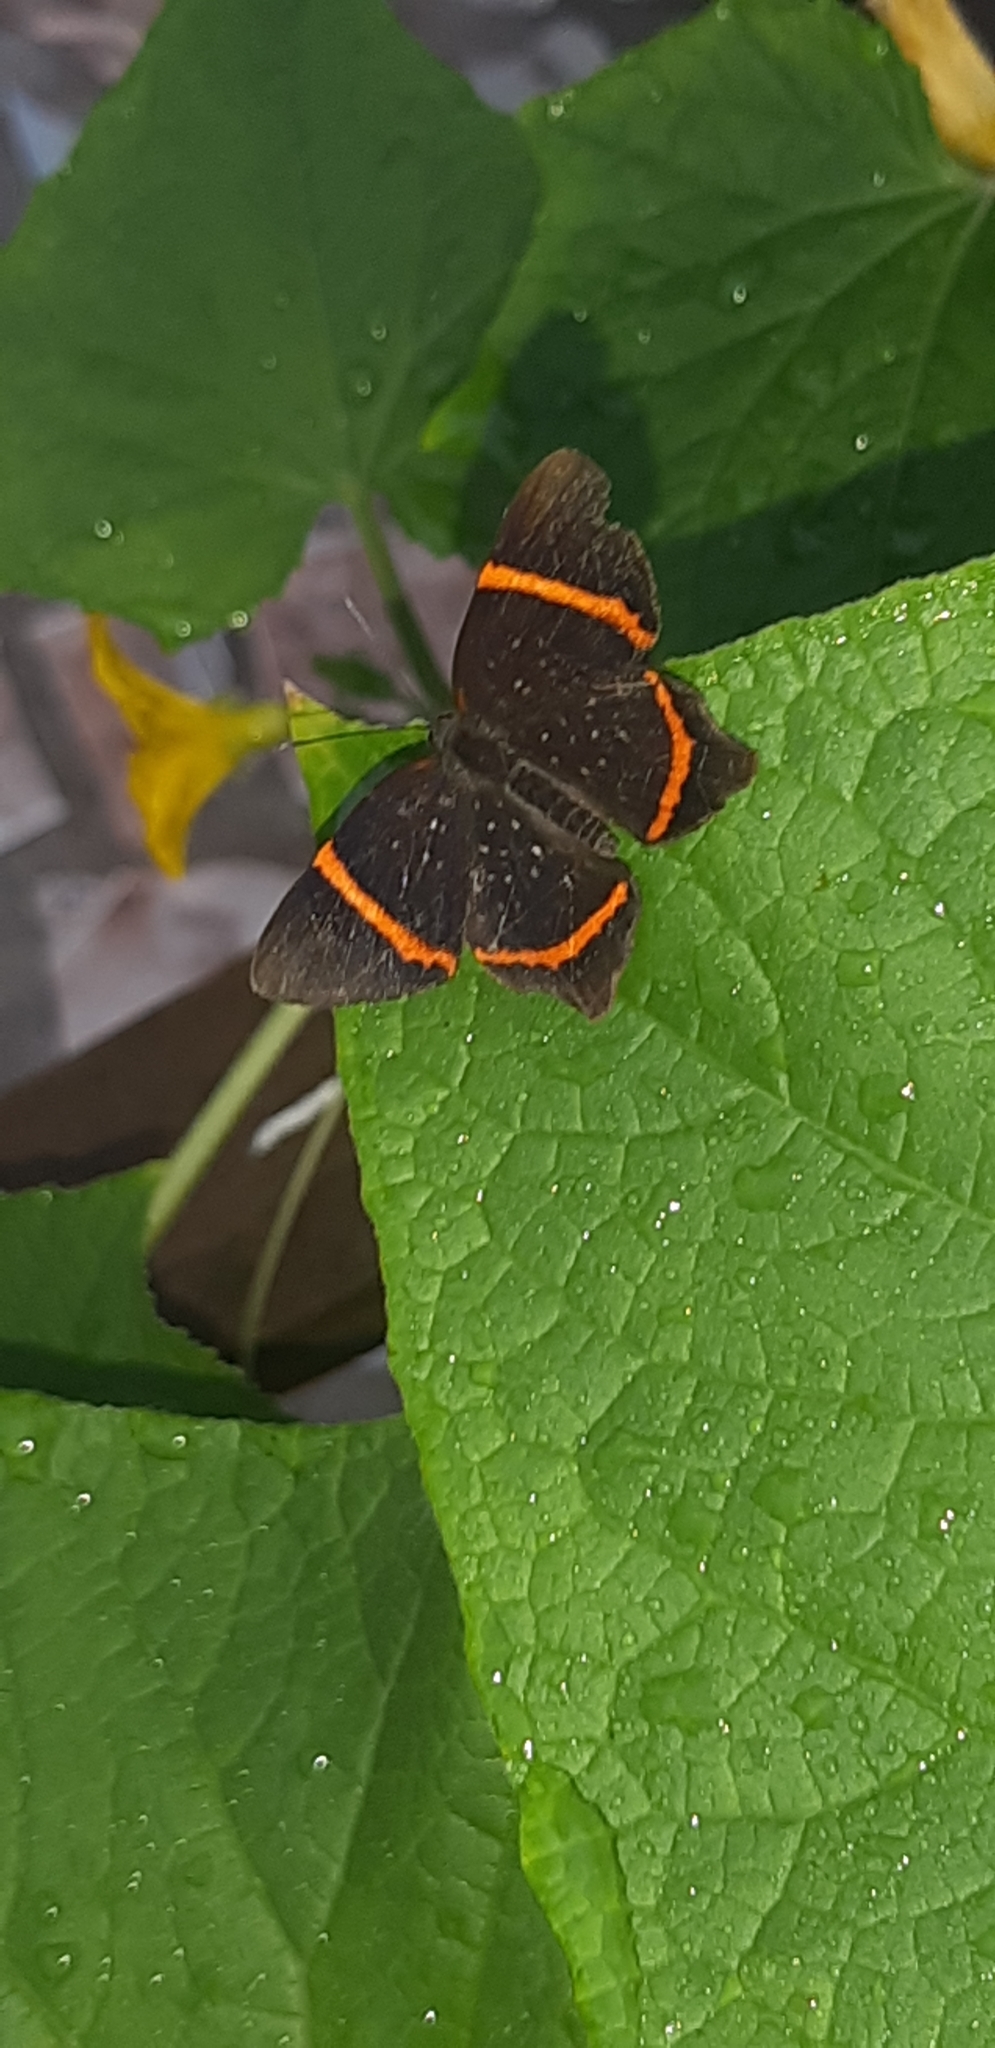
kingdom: Animalia
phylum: Arthropoda
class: Insecta
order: Lepidoptera
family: Riodinidae
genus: Riodina
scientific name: Riodina lysippus
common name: Lysippus metalmark
